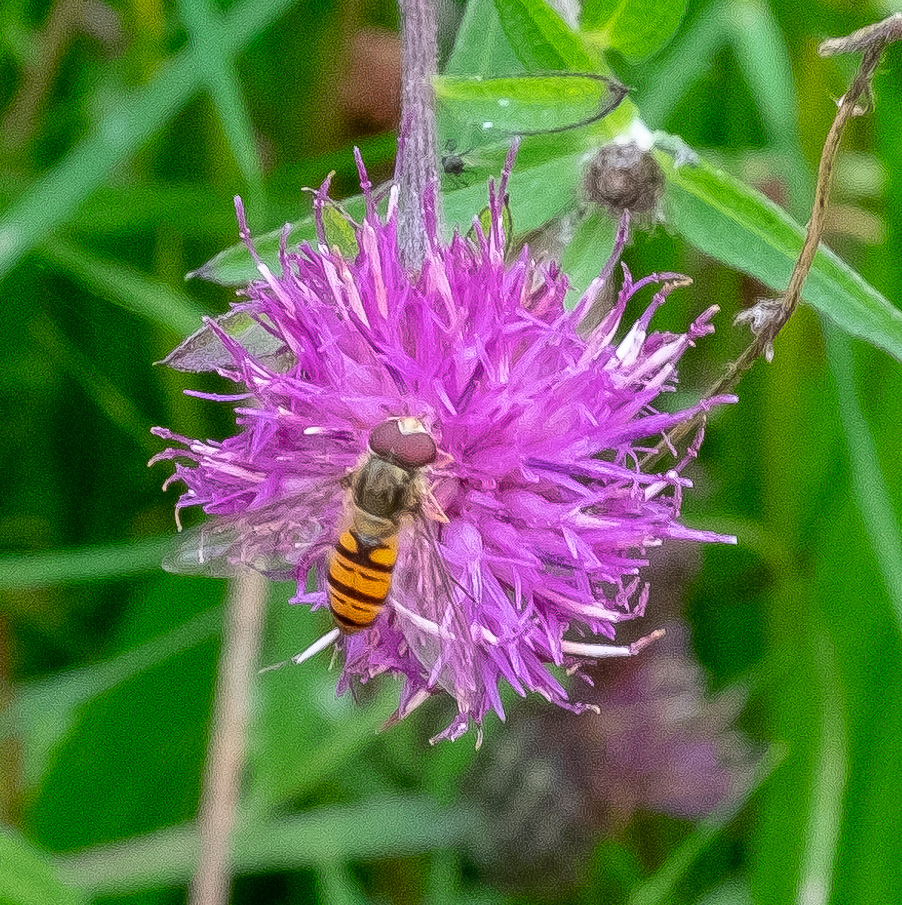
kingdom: Animalia
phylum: Arthropoda
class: Insecta
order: Diptera
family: Syrphidae
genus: Episyrphus
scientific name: Episyrphus balteatus
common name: Marmalade hoverfly
